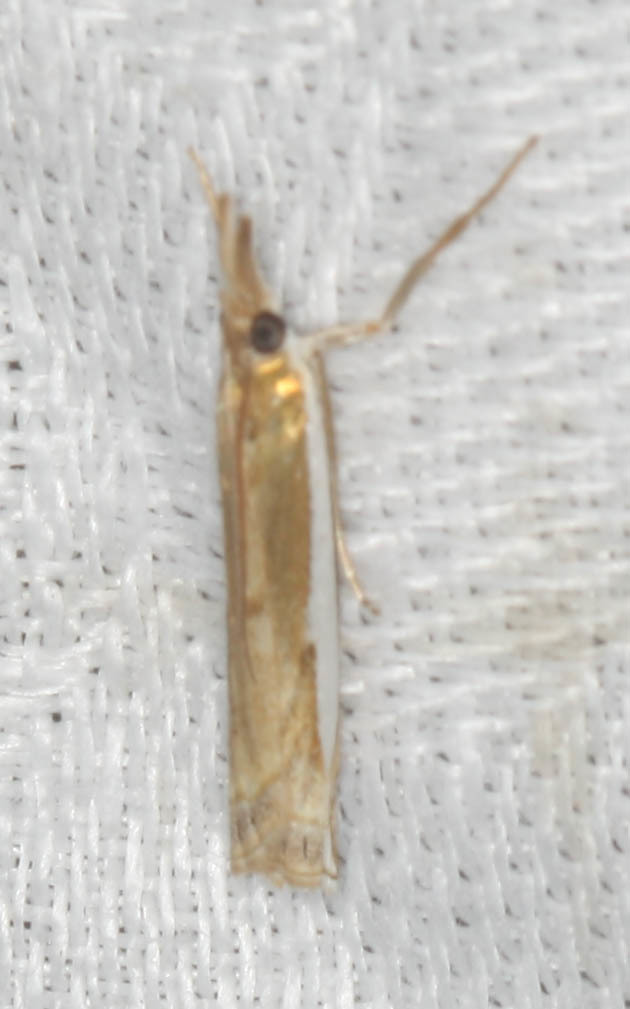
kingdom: Animalia
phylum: Arthropoda
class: Insecta
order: Lepidoptera
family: Crambidae
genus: Crambus
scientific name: Crambus
